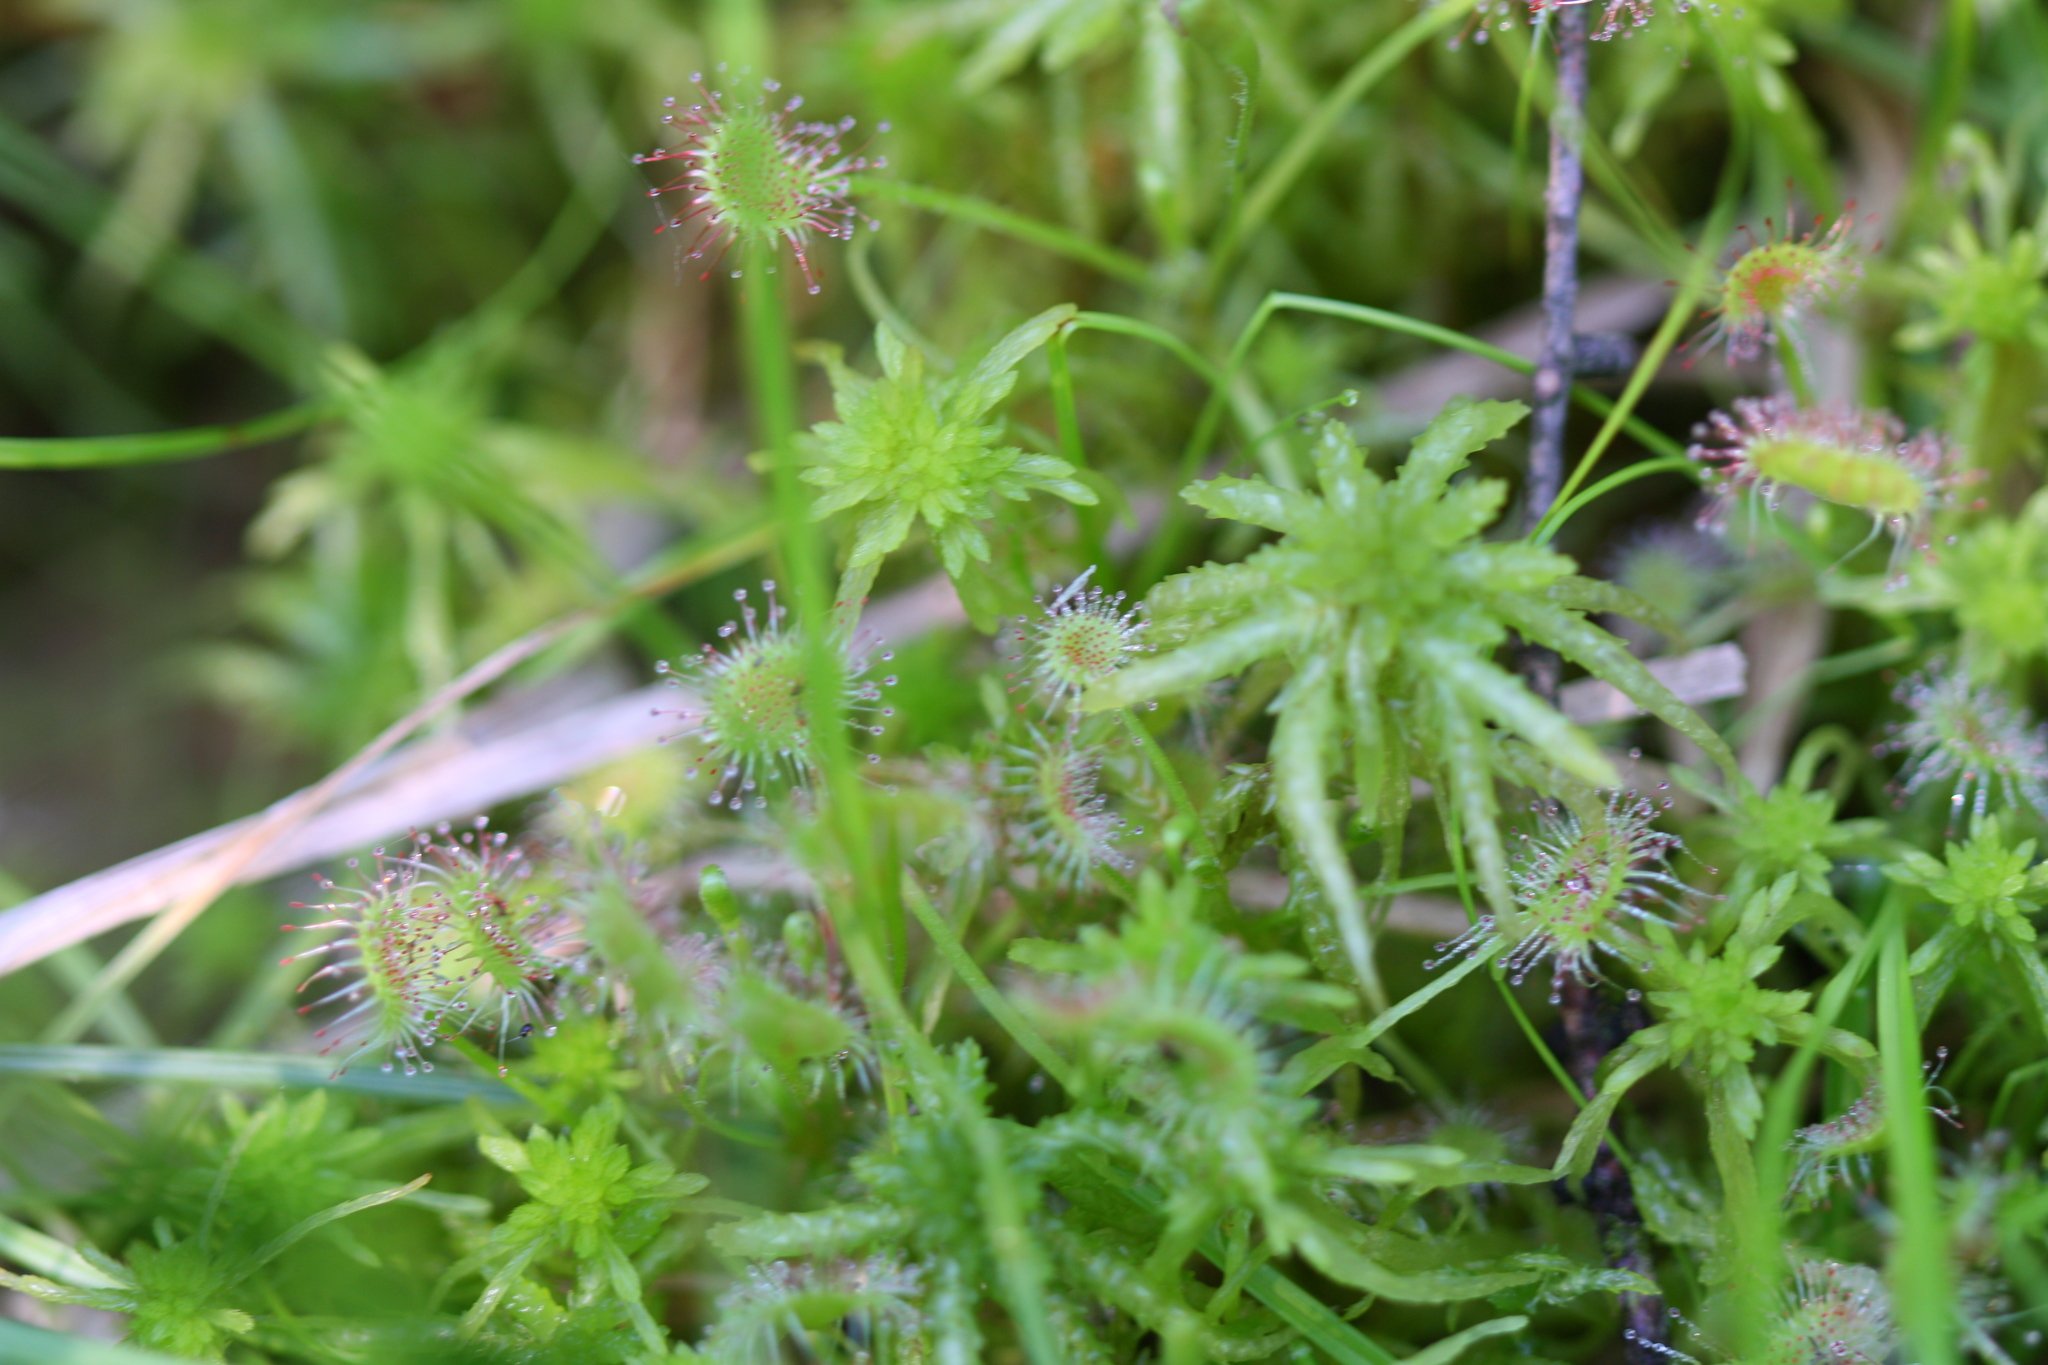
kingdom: Plantae
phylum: Tracheophyta
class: Magnoliopsida
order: Caryophyllales
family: Droseraceae
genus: Drosera
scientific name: Drosera rotundifolia
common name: Round-leaved sundew
